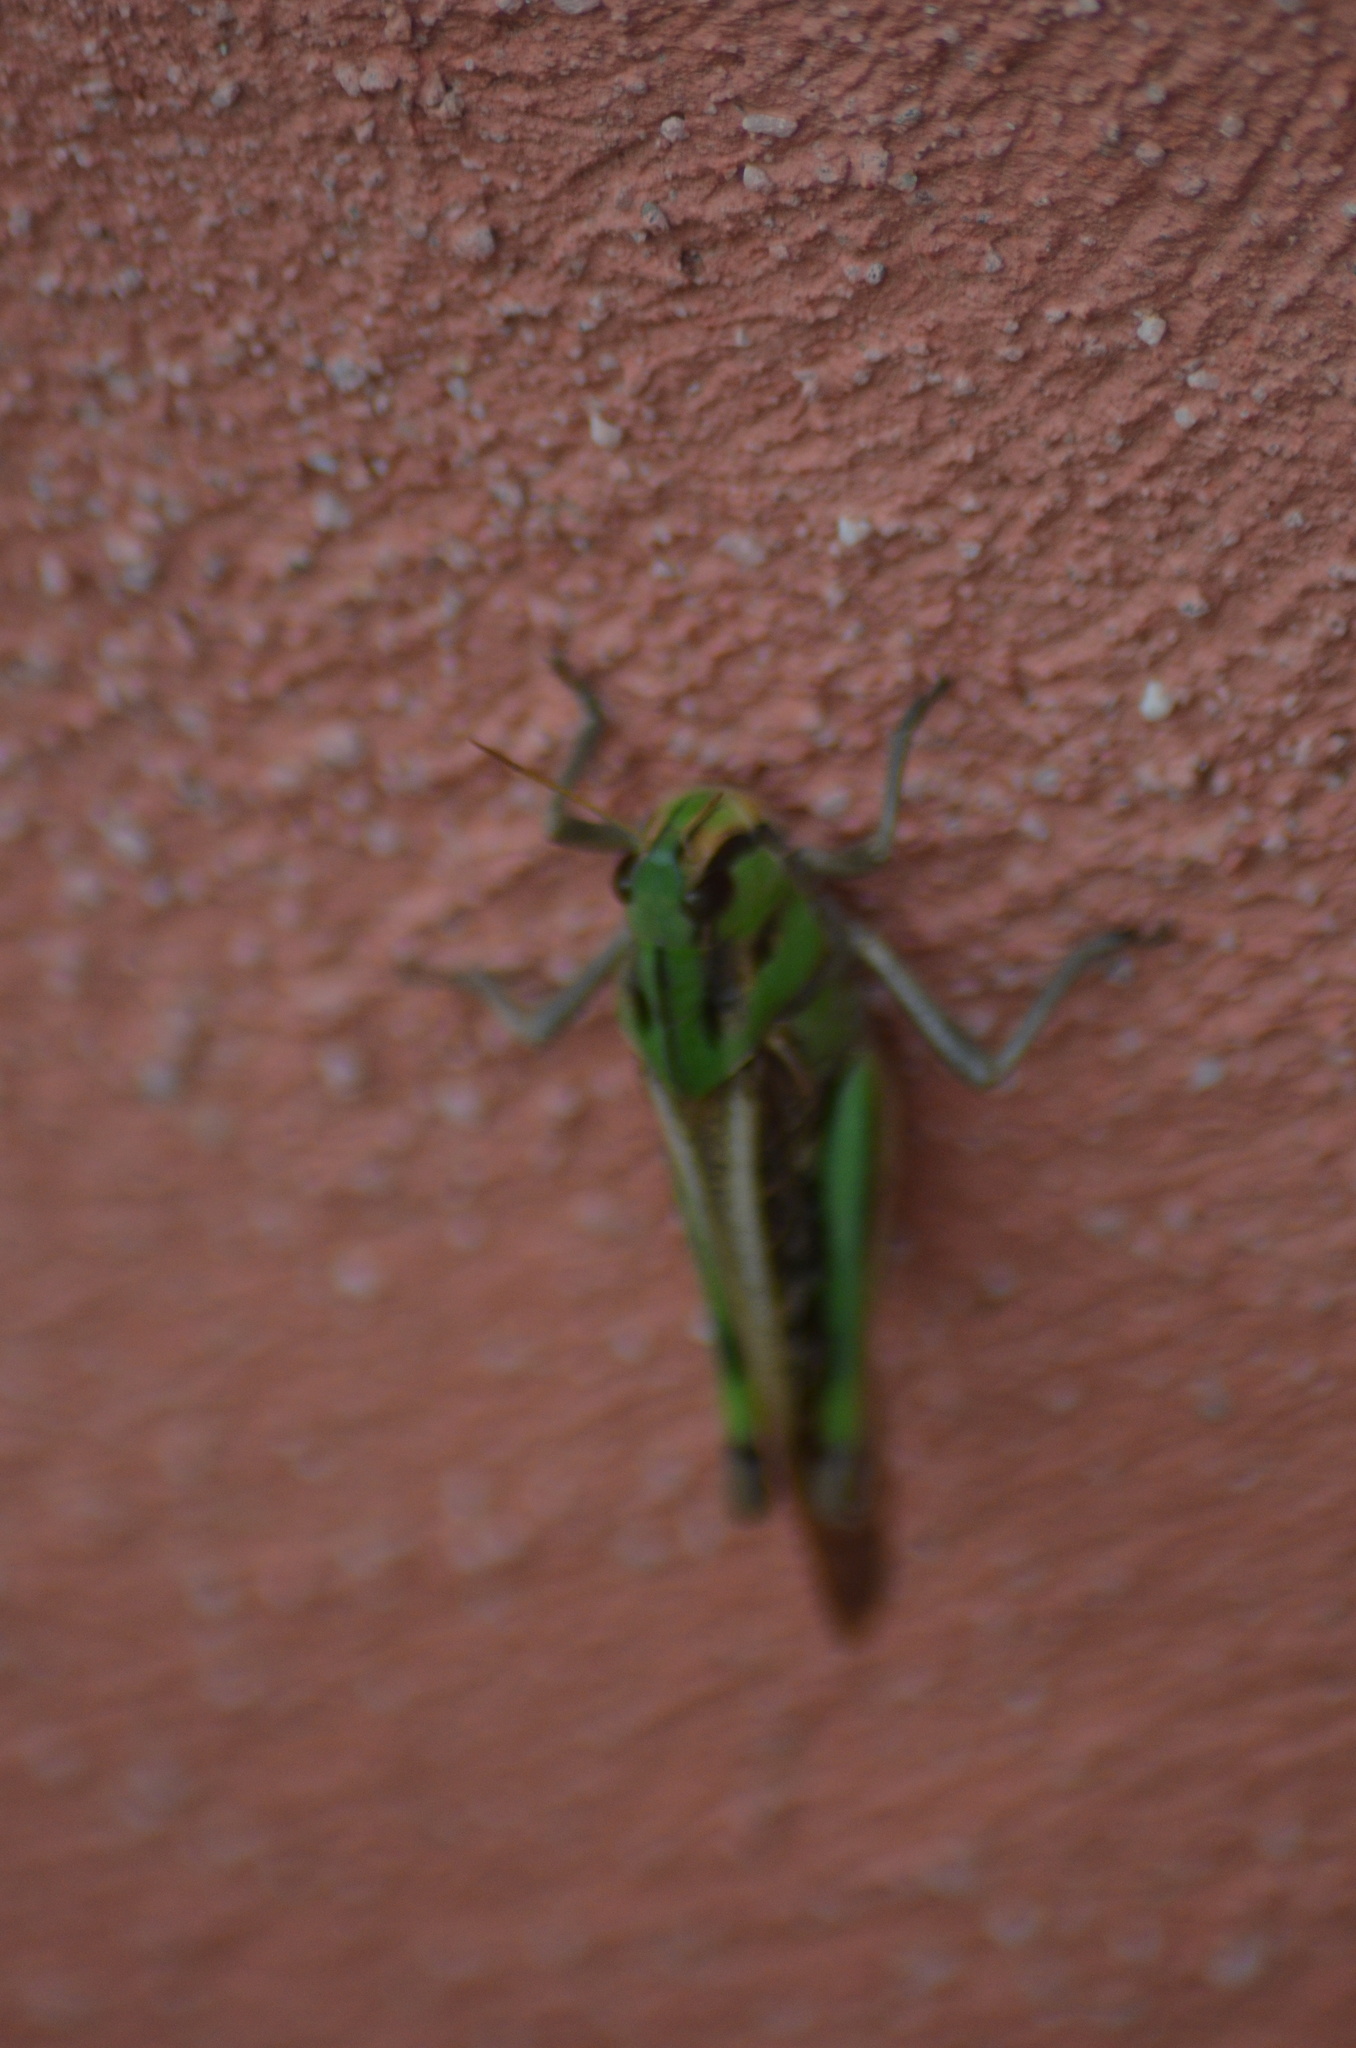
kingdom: Animalia
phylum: Arthropoda
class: Insecta
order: Orthoptera
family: Acrididae
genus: Locusta
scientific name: Locusta migratoria
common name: Migratory locust
